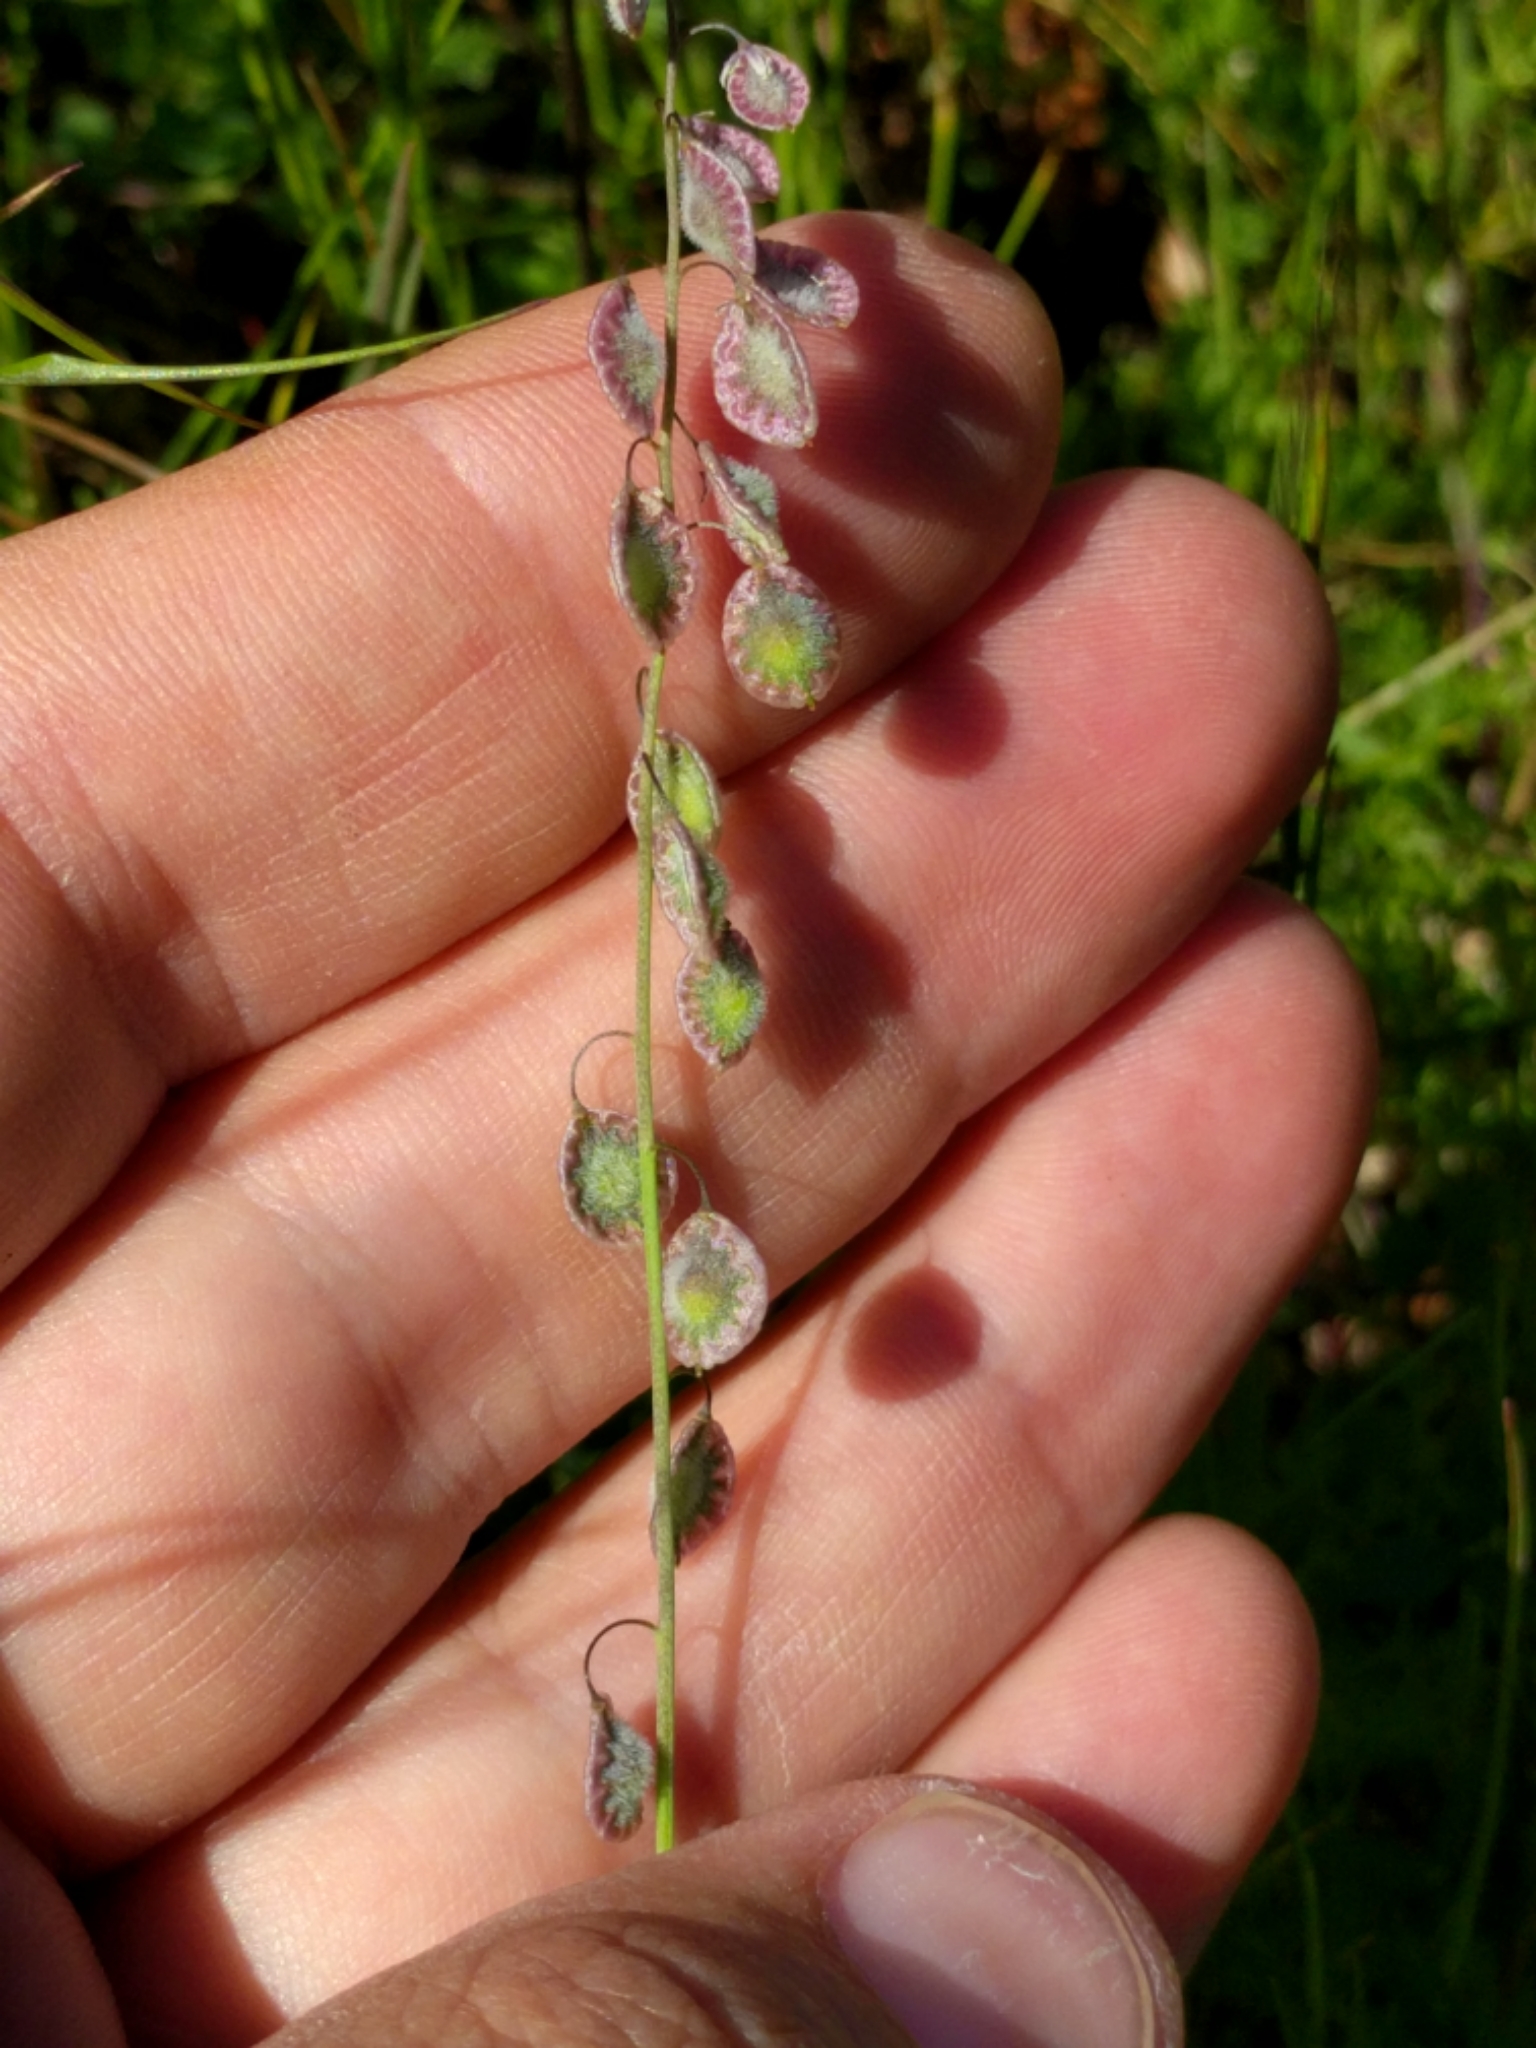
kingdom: Plantae
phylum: Tracheophyta
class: Magnoliopsida
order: Brassicales
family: Brassicaceae
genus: Thysanocarpus
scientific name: Thysanocarpus curvipes
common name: Sand fringepod
